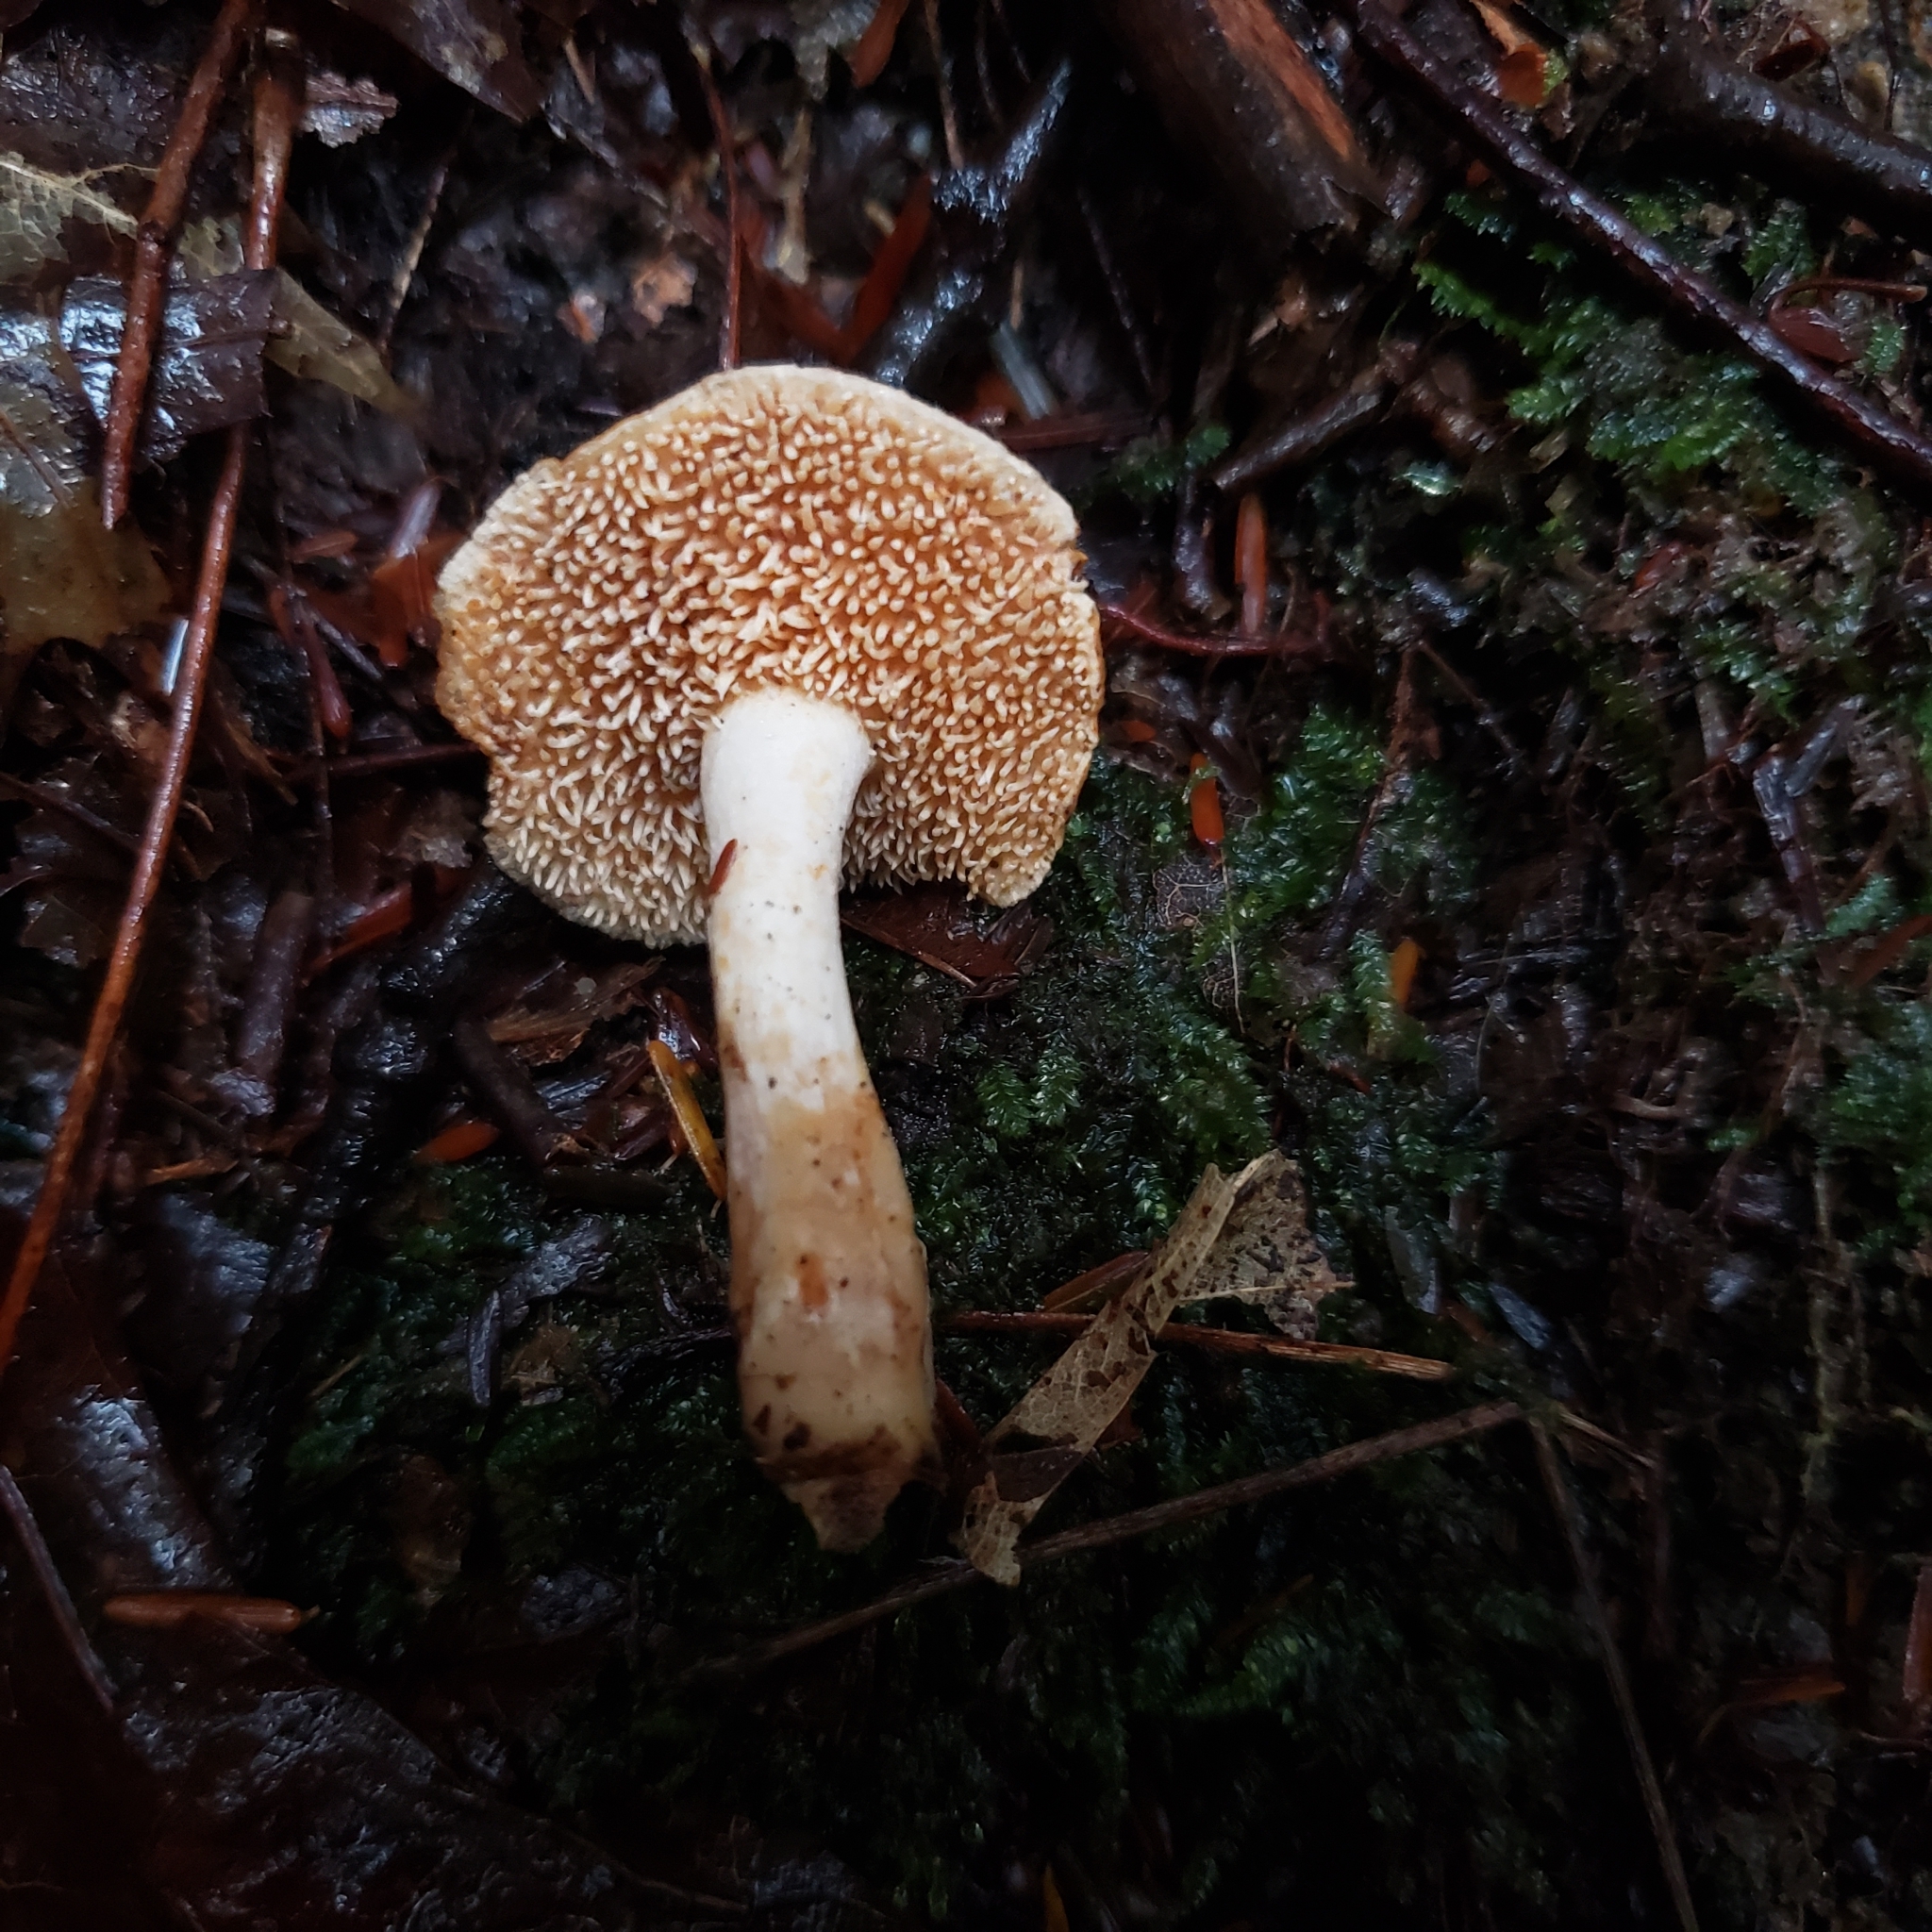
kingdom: Fungi
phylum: Basidiomycota
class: Agaricomycetes
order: Cantharellales
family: Hydnaceae
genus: Hydnum
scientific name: Hydnum umbilicatum
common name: Umbilicate hedgehog
